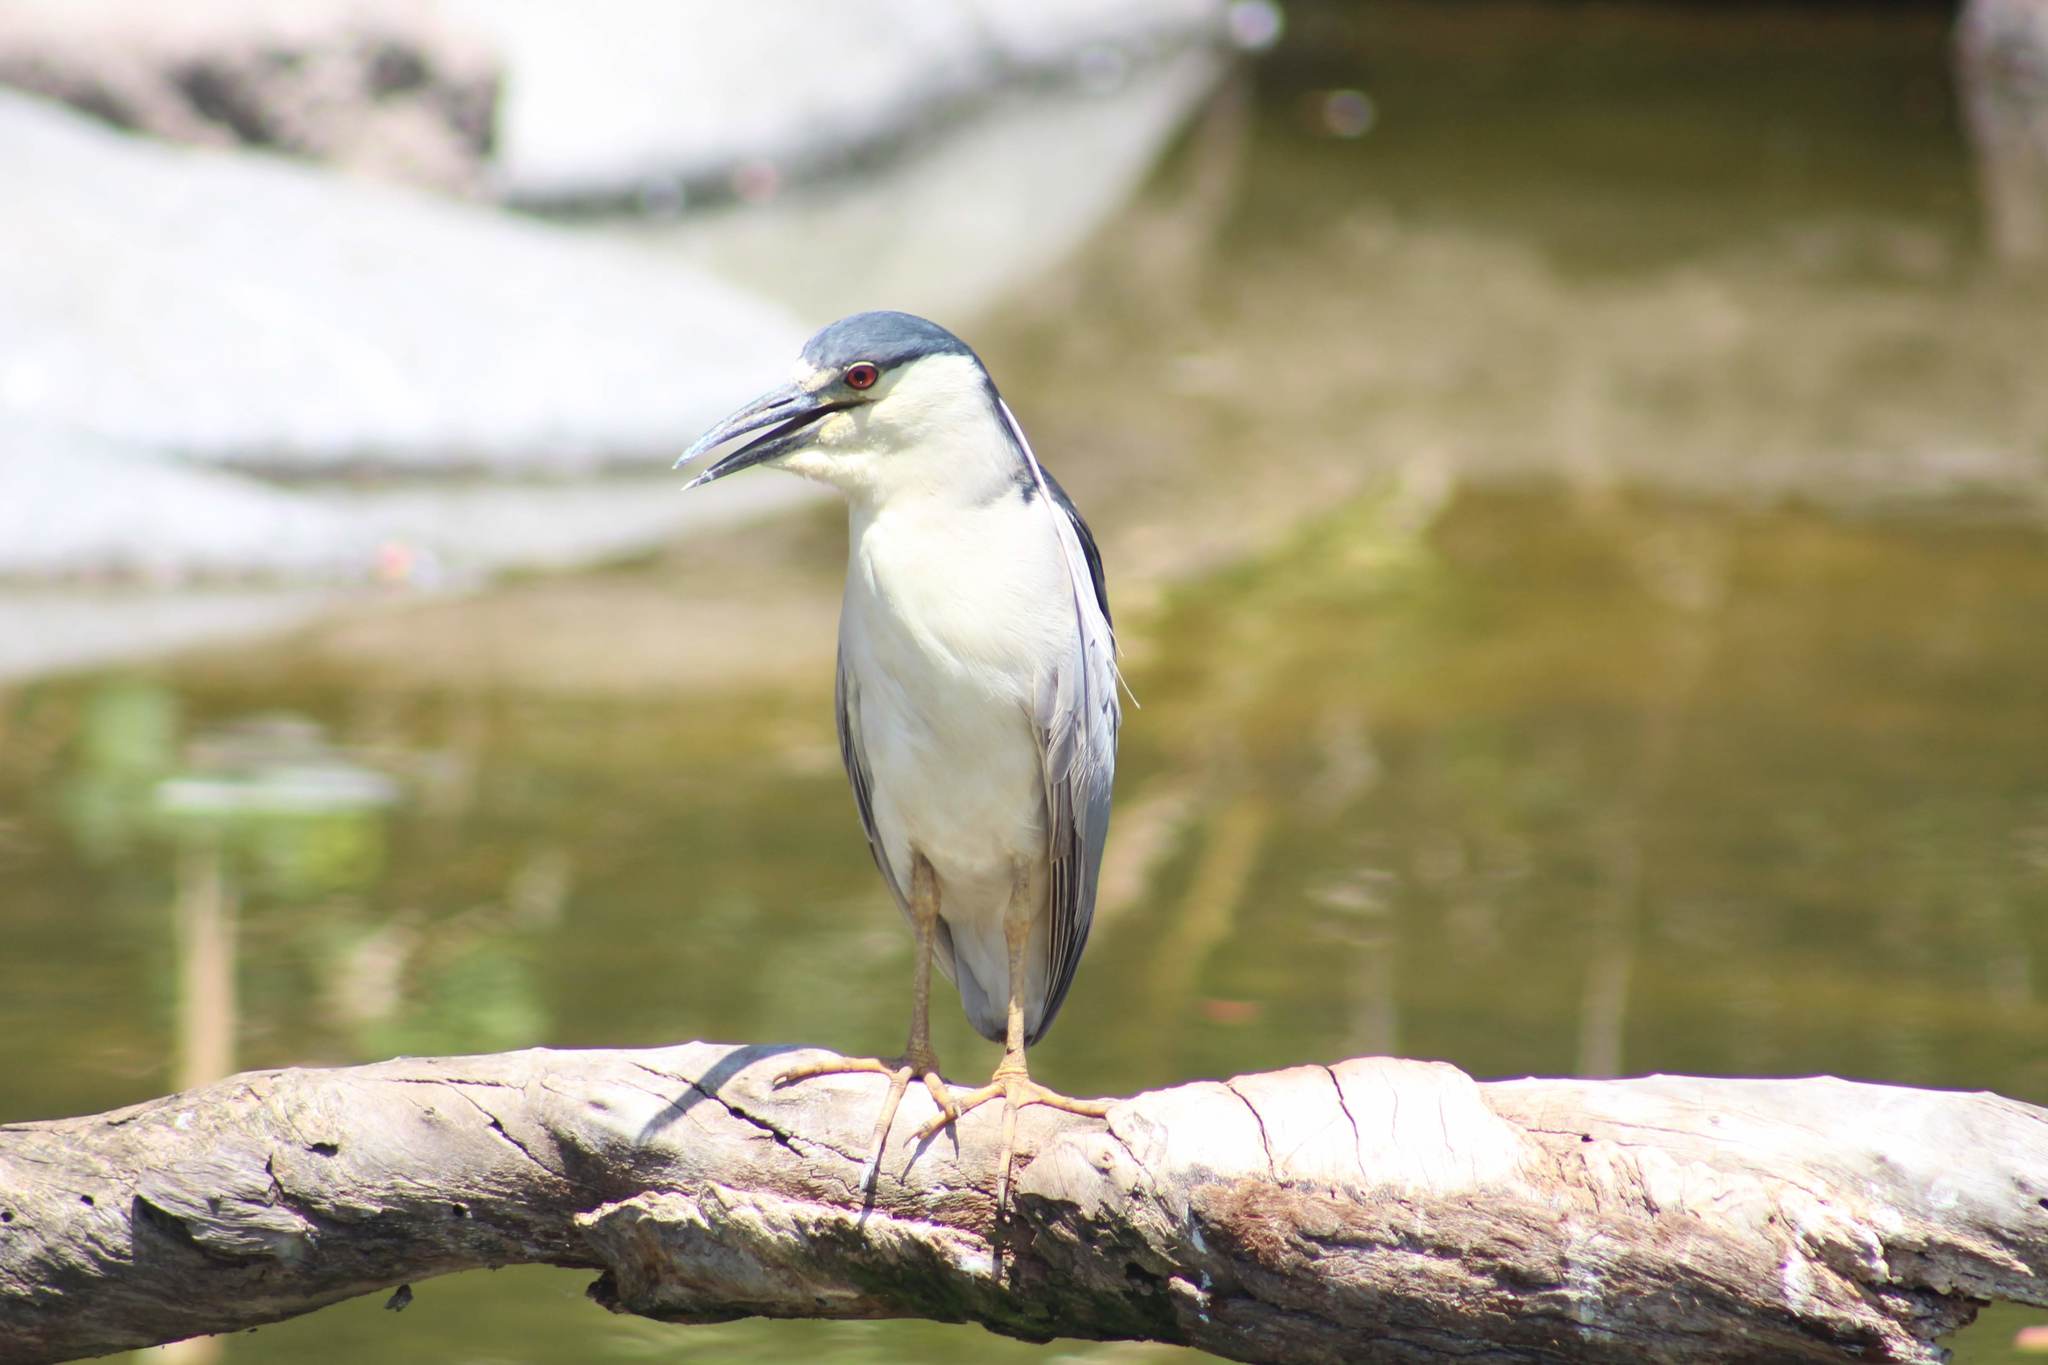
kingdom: Animalia
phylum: Chordata
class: Aves
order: Pelecaniformes
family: Ardeidae
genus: Nycticorax
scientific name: Nycticorax nycticorax
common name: Black-crowned night heron
